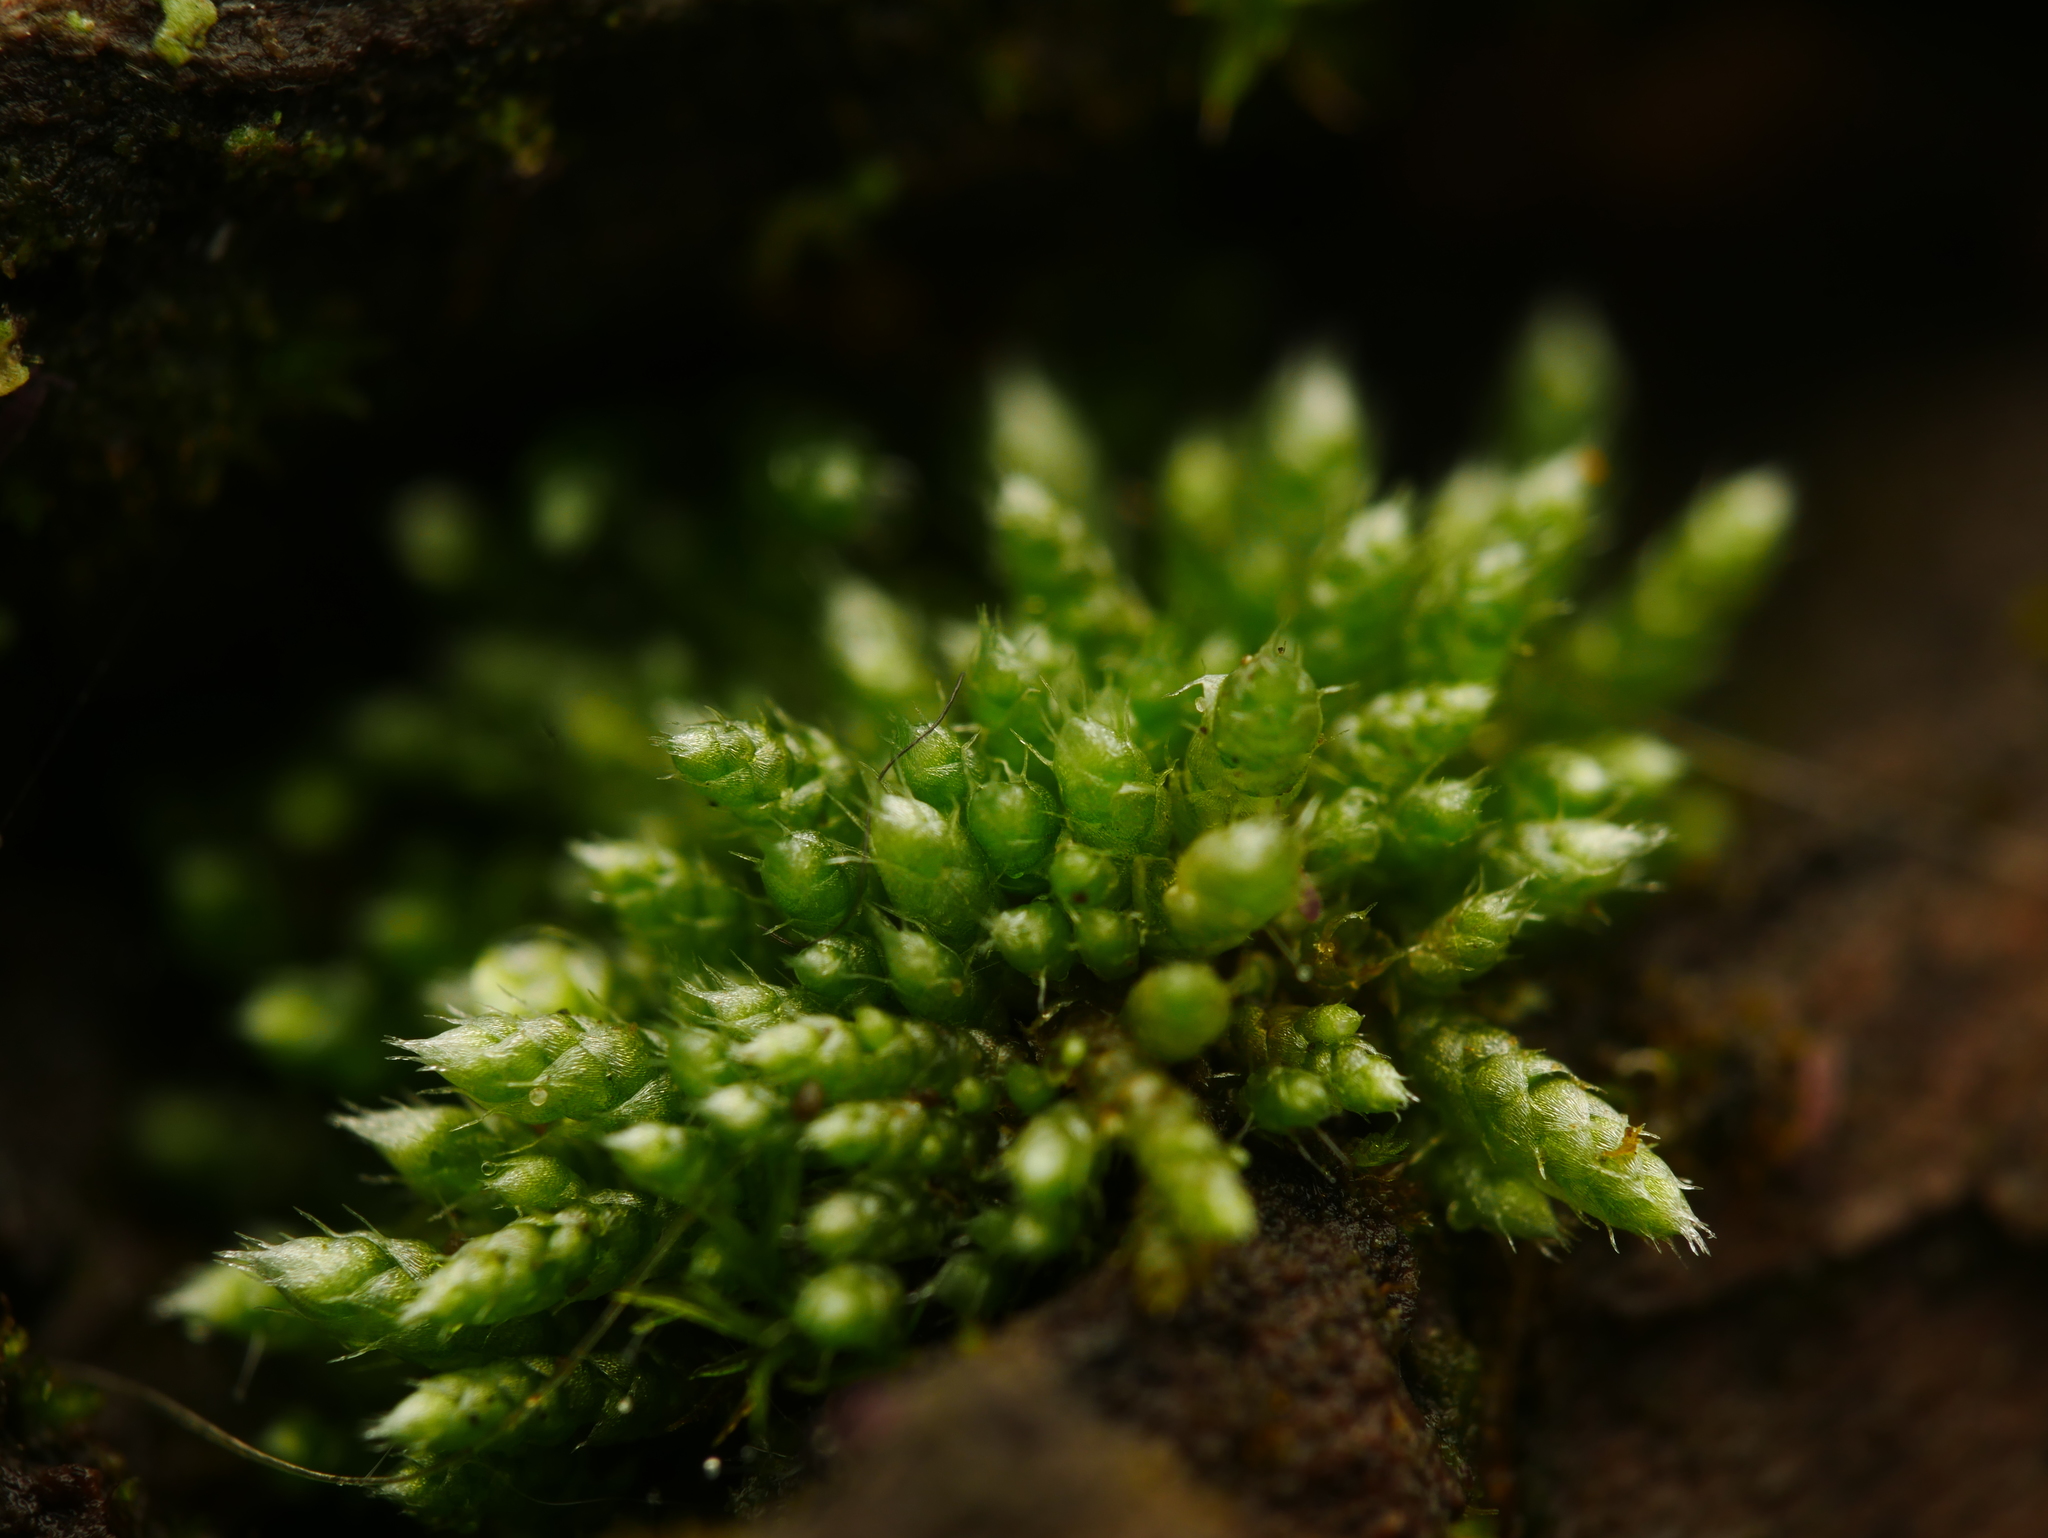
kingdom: Plantae
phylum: Bryophyta
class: Bryopsida
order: Bryales
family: Bryaceae
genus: Bryum
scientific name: Bryum argenteum
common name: Silver-moss
